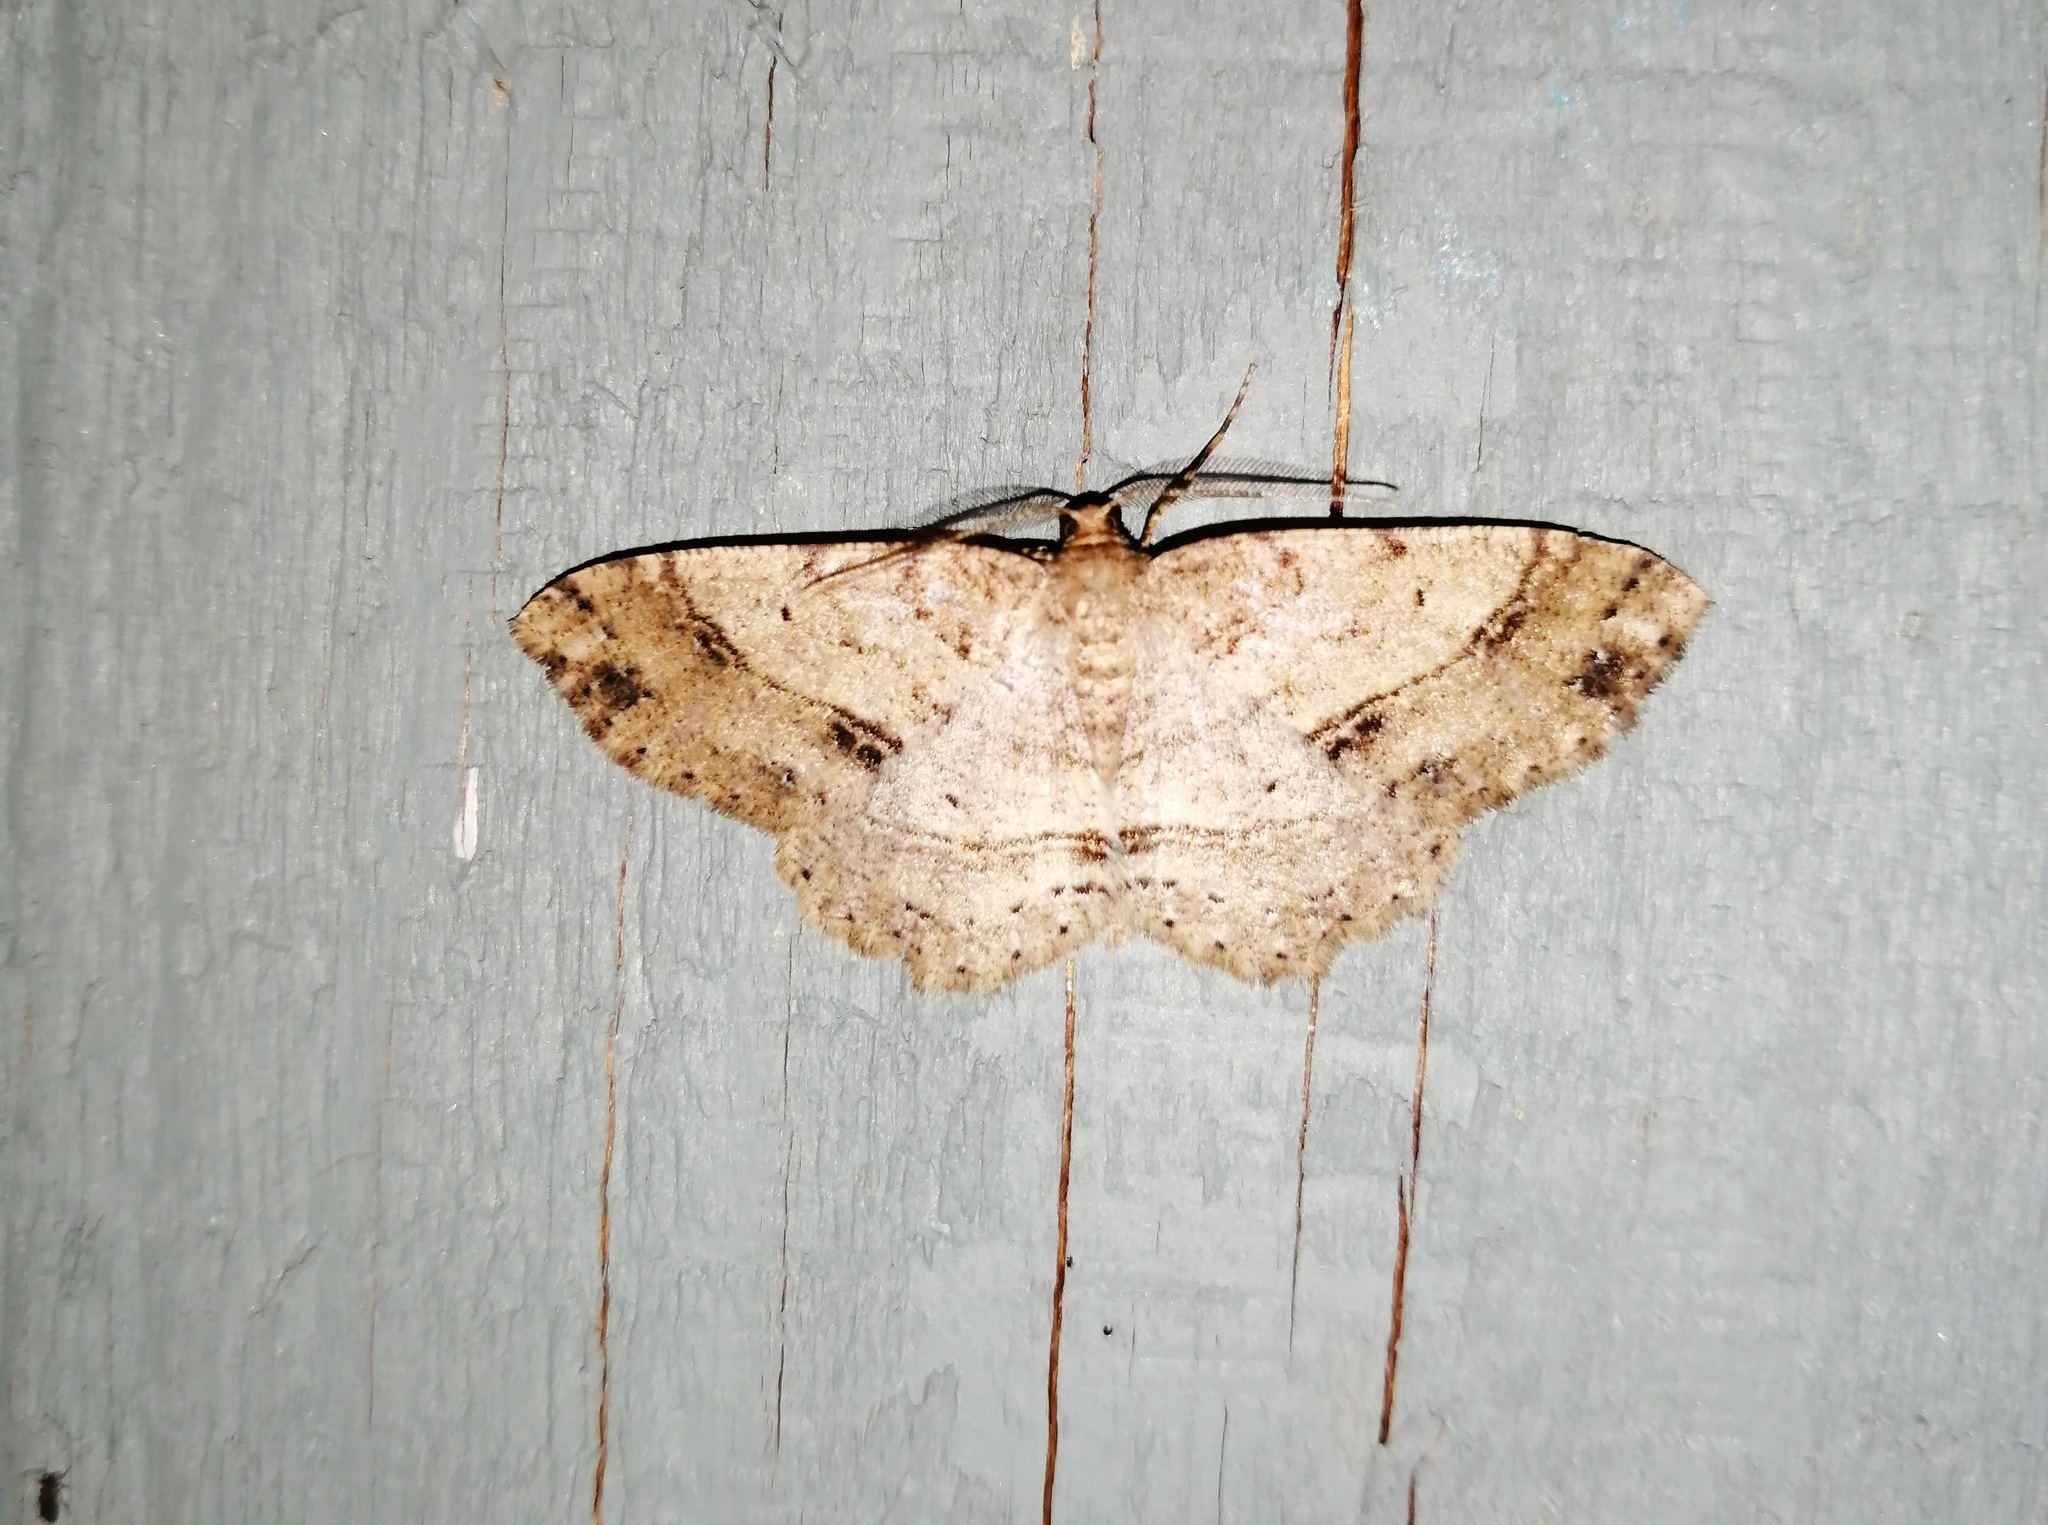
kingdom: Animalia
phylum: Arthropoda
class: Insecta
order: Lepidoptera
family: Geometridae
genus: Melanolophia
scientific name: Melanolophia canadaria
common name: Canadian melanolophia
